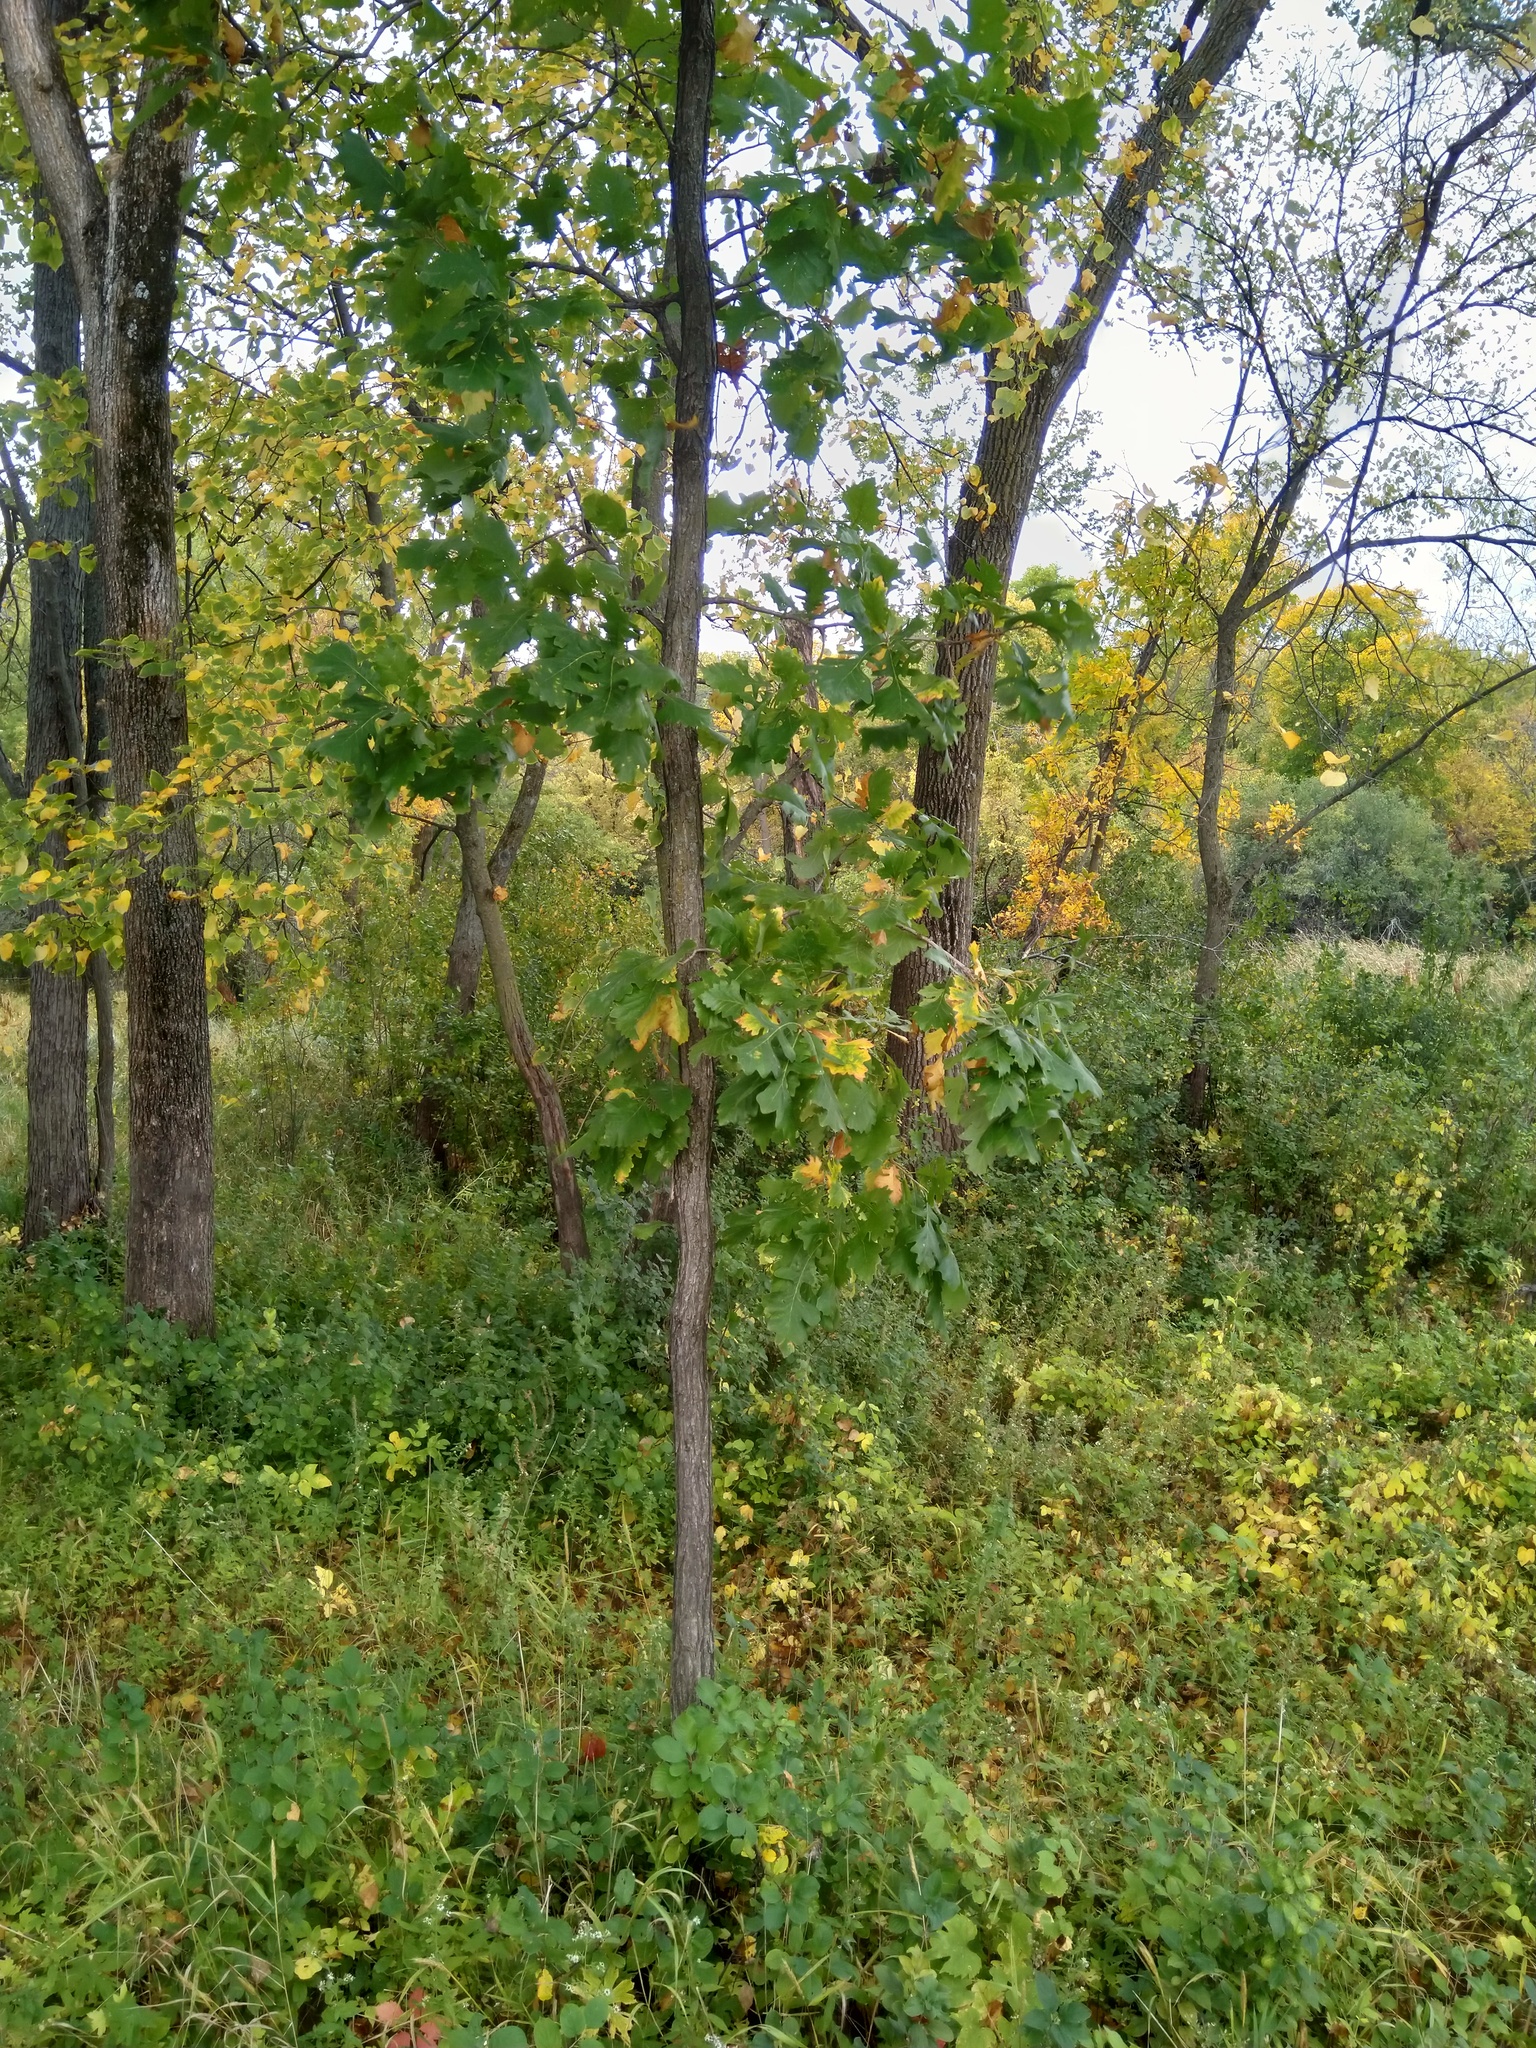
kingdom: Plantae
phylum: Tracheophyta
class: Magnoliopsida
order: Fagales
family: Fagaceae
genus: Quercus
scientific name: Quercus macrocarpa
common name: Bur oak
